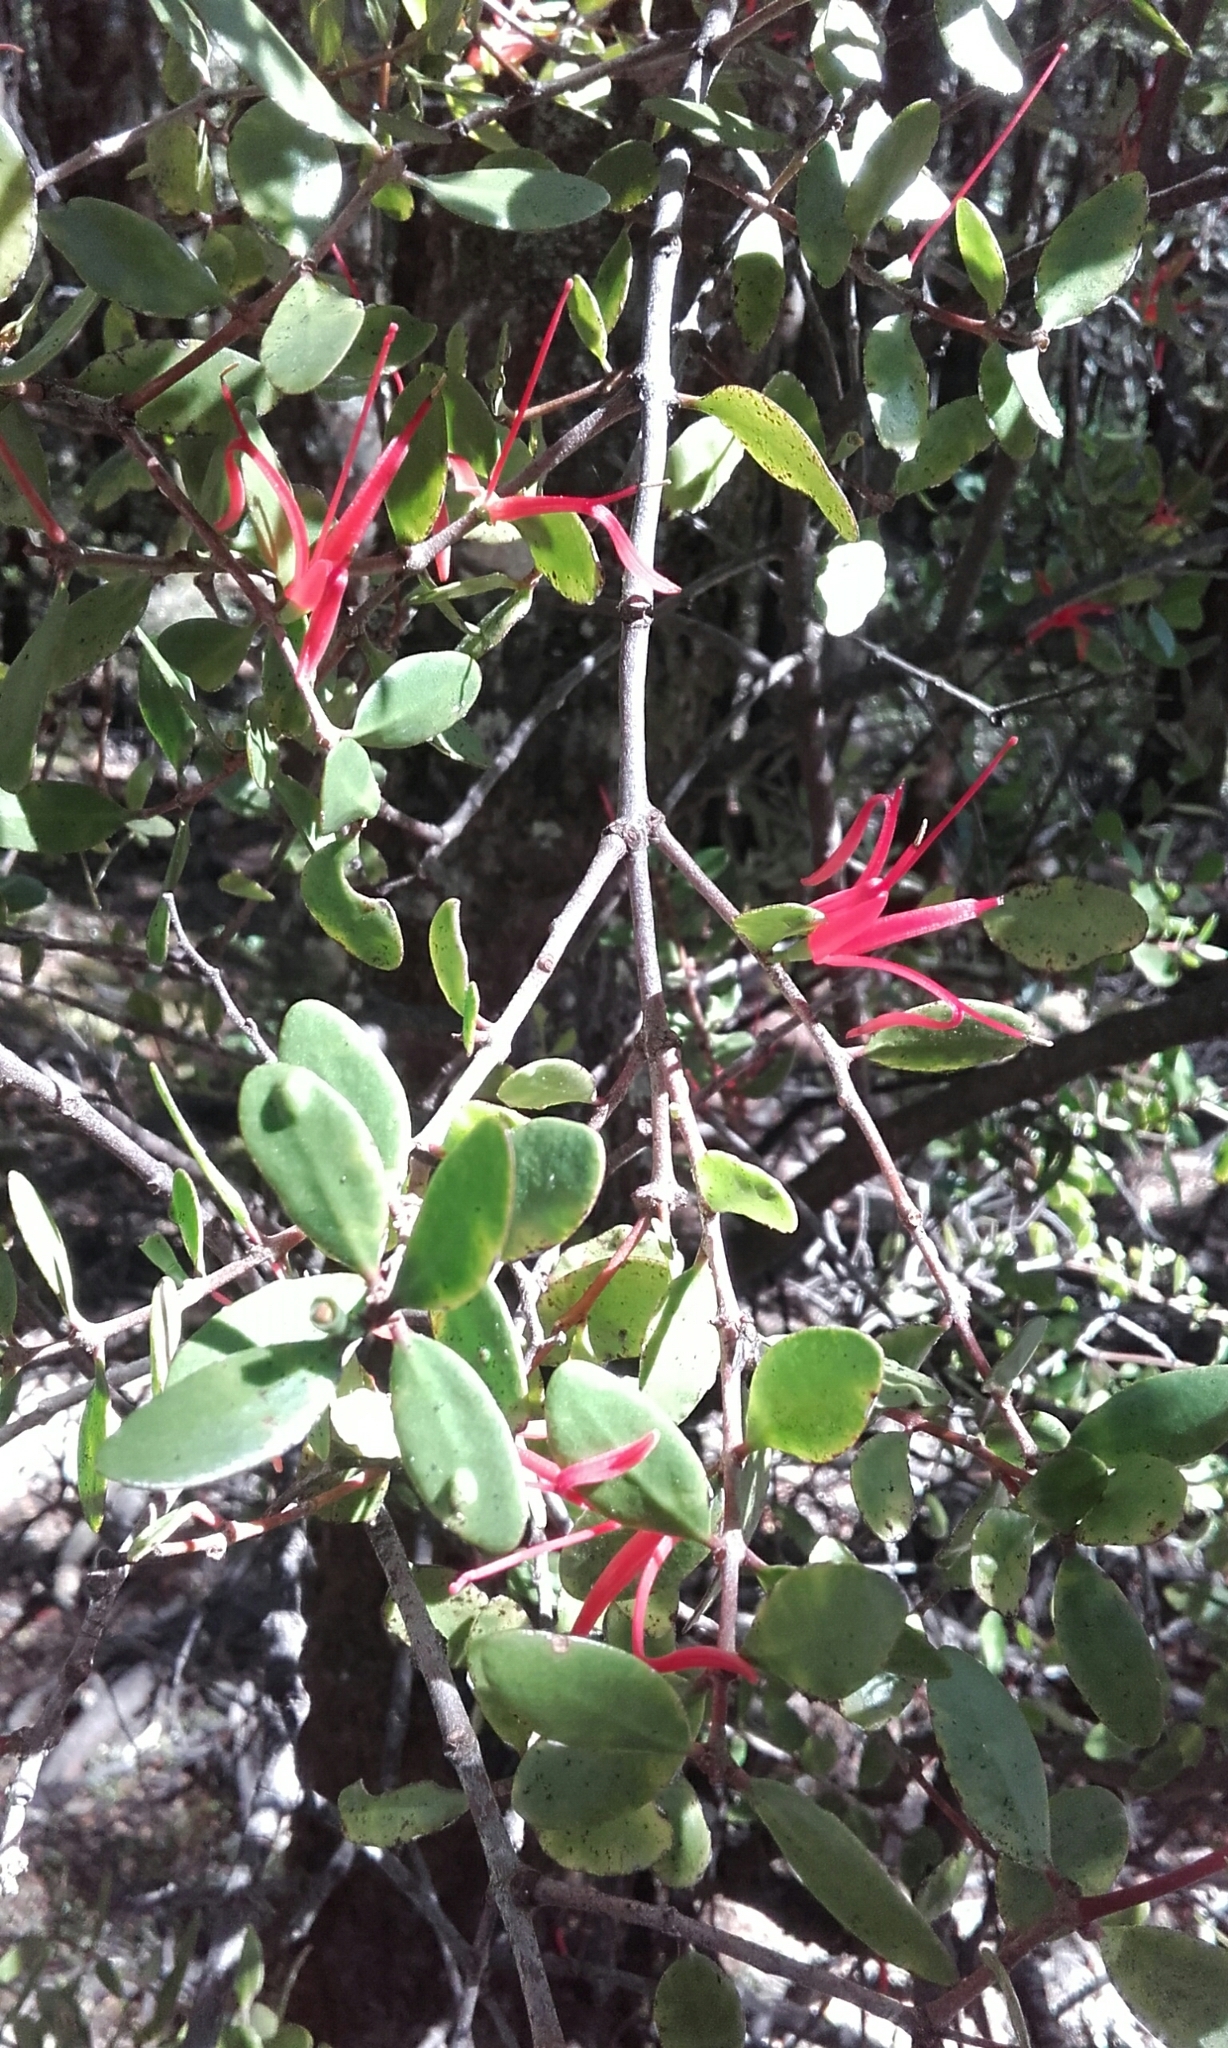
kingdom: Plantae
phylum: Tracheophyta
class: Magnoliopsida
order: Santalales
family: Loranthaceae
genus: Peraxilla
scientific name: Peraxilla tetrapetala
